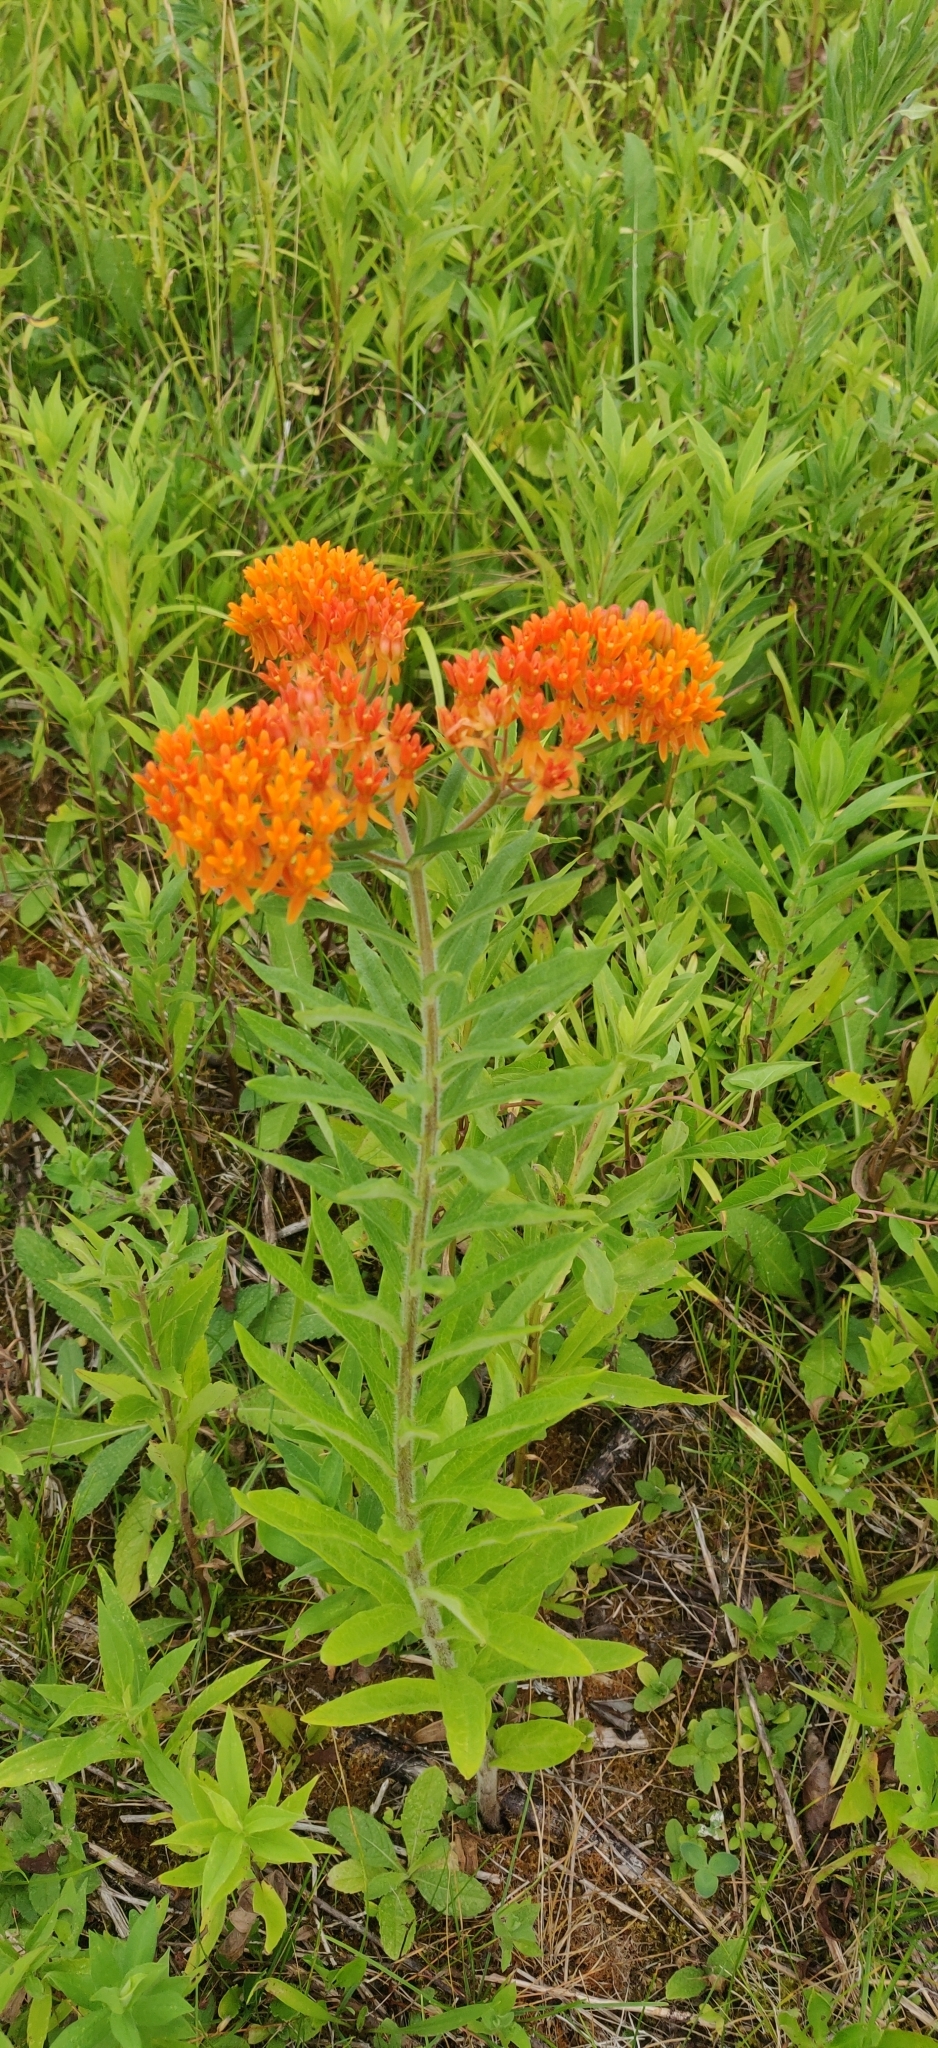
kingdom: Plantae
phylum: Tracheophyta
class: Magnoliopsida
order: Gentianales
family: Apocynaceae
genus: Asclepias
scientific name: Asclepias tuberosa
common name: Butterfly milkweed
